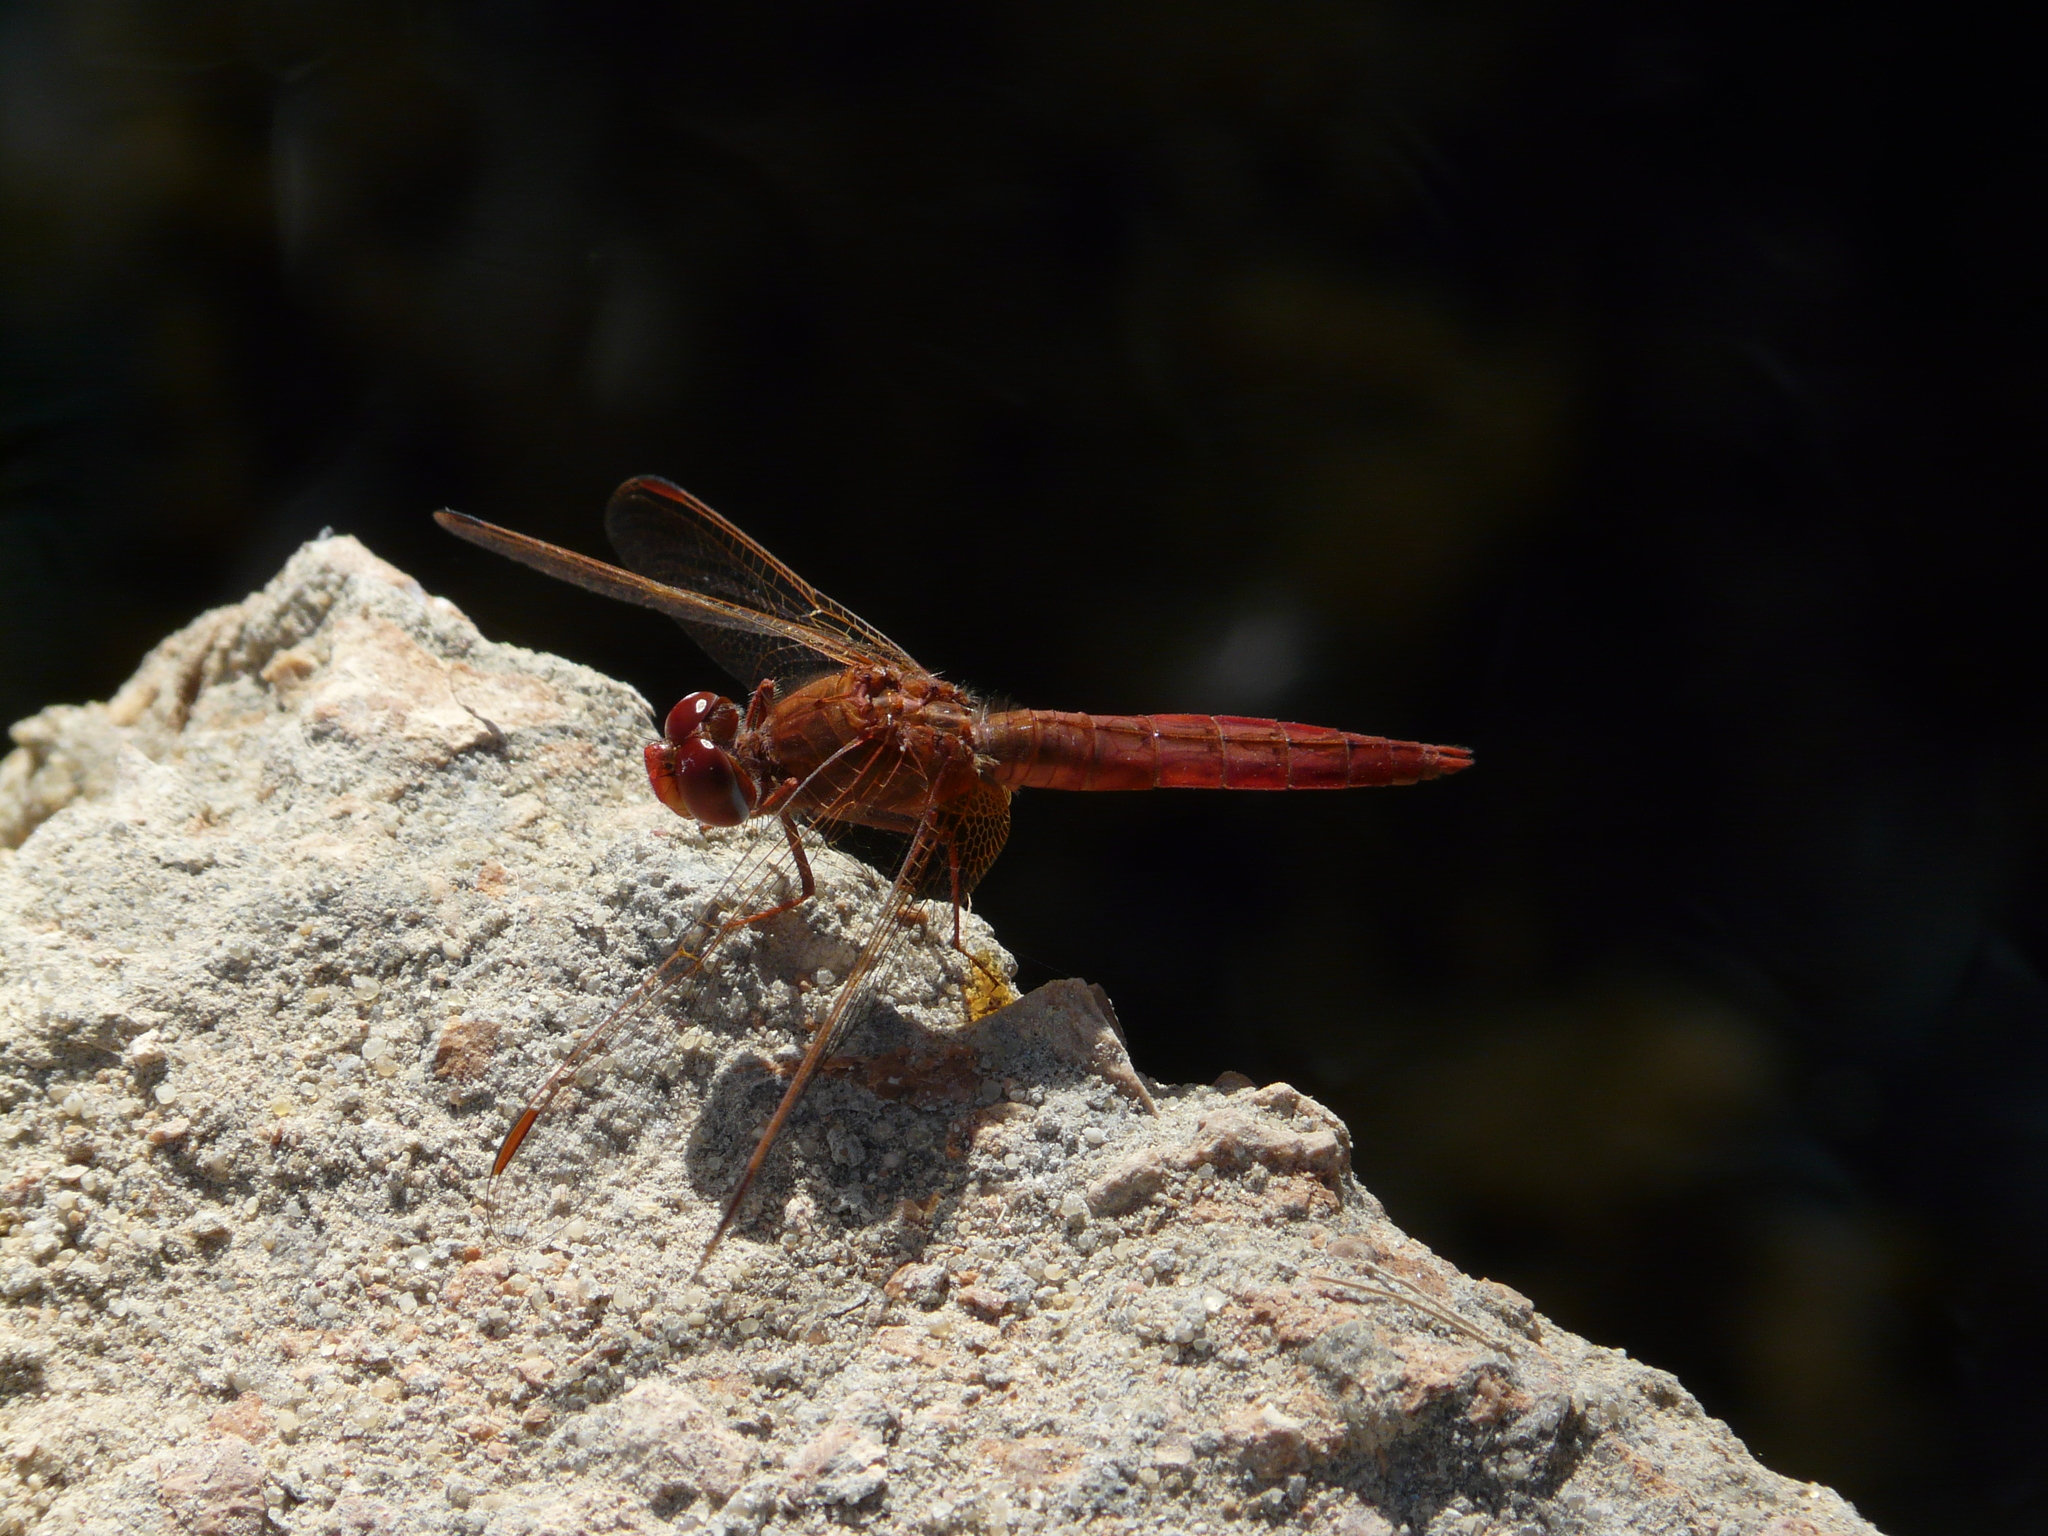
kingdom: Animalia
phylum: Arthropoda
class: Insecta
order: Odonata
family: Libellulidae
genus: Crocothemis
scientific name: Crocothemis erythraea
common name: Scarlet dragonfly
